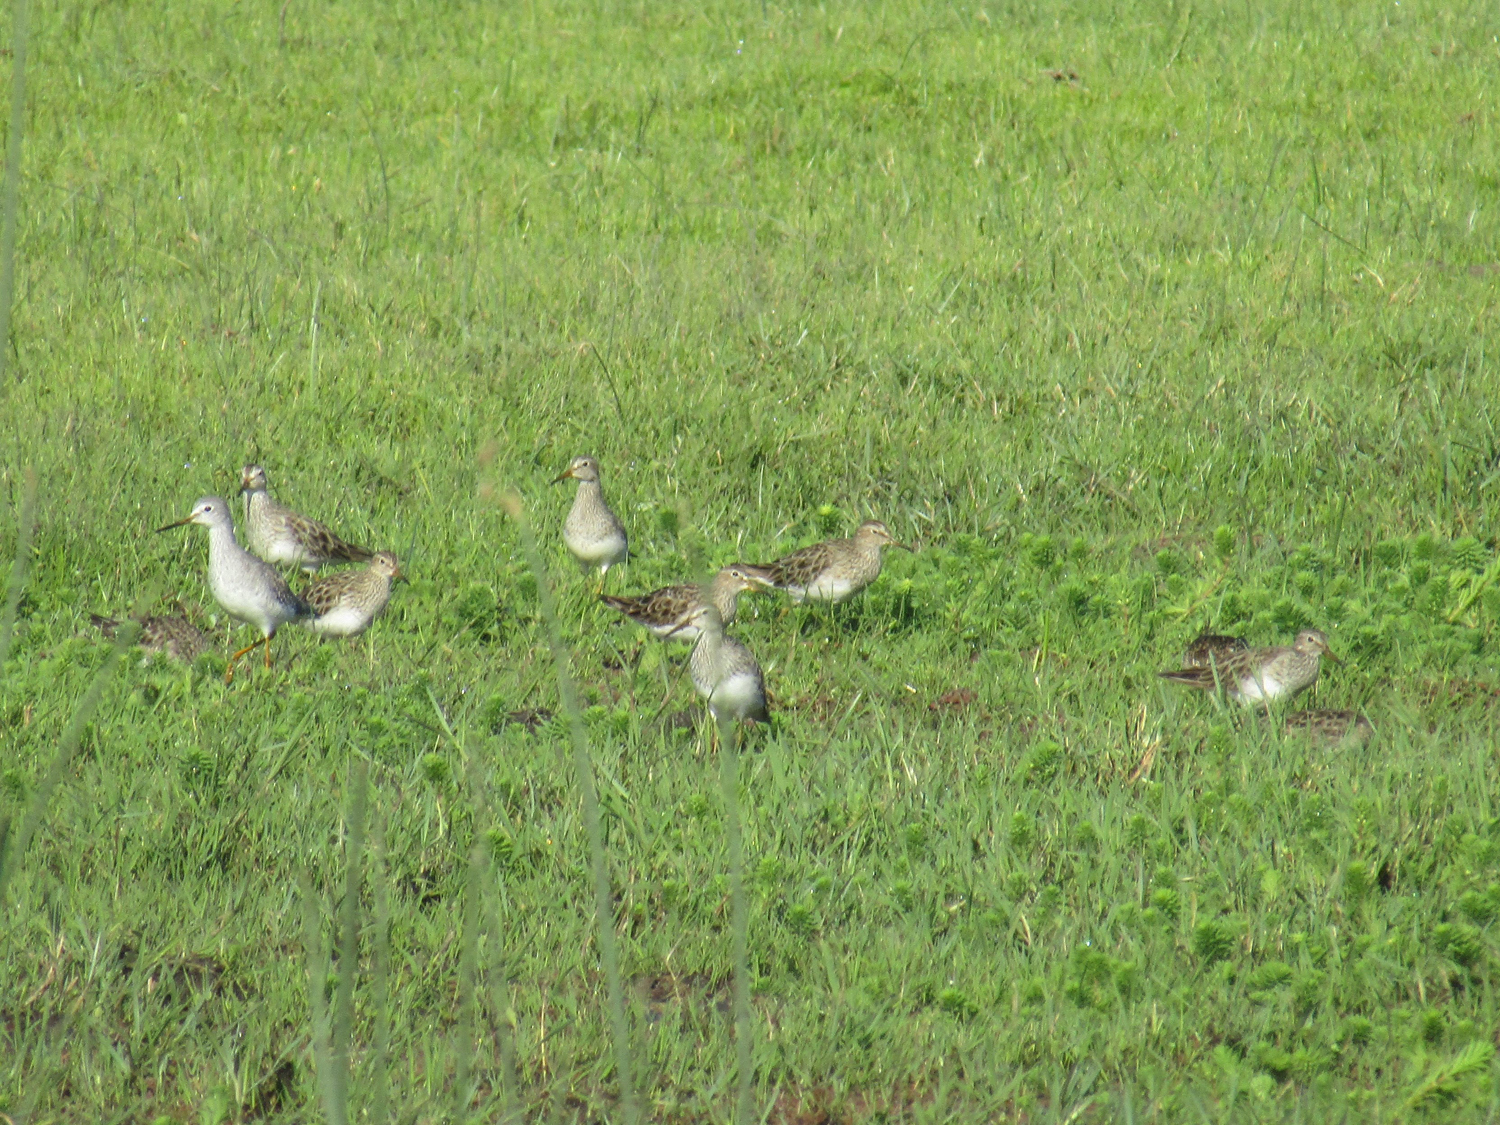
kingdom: Animalia
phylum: Chordata
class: Aves
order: Charadriiformes
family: Scolopacidae
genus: Calidris
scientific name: Calidris melanotos
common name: Pectoral sandpiper
